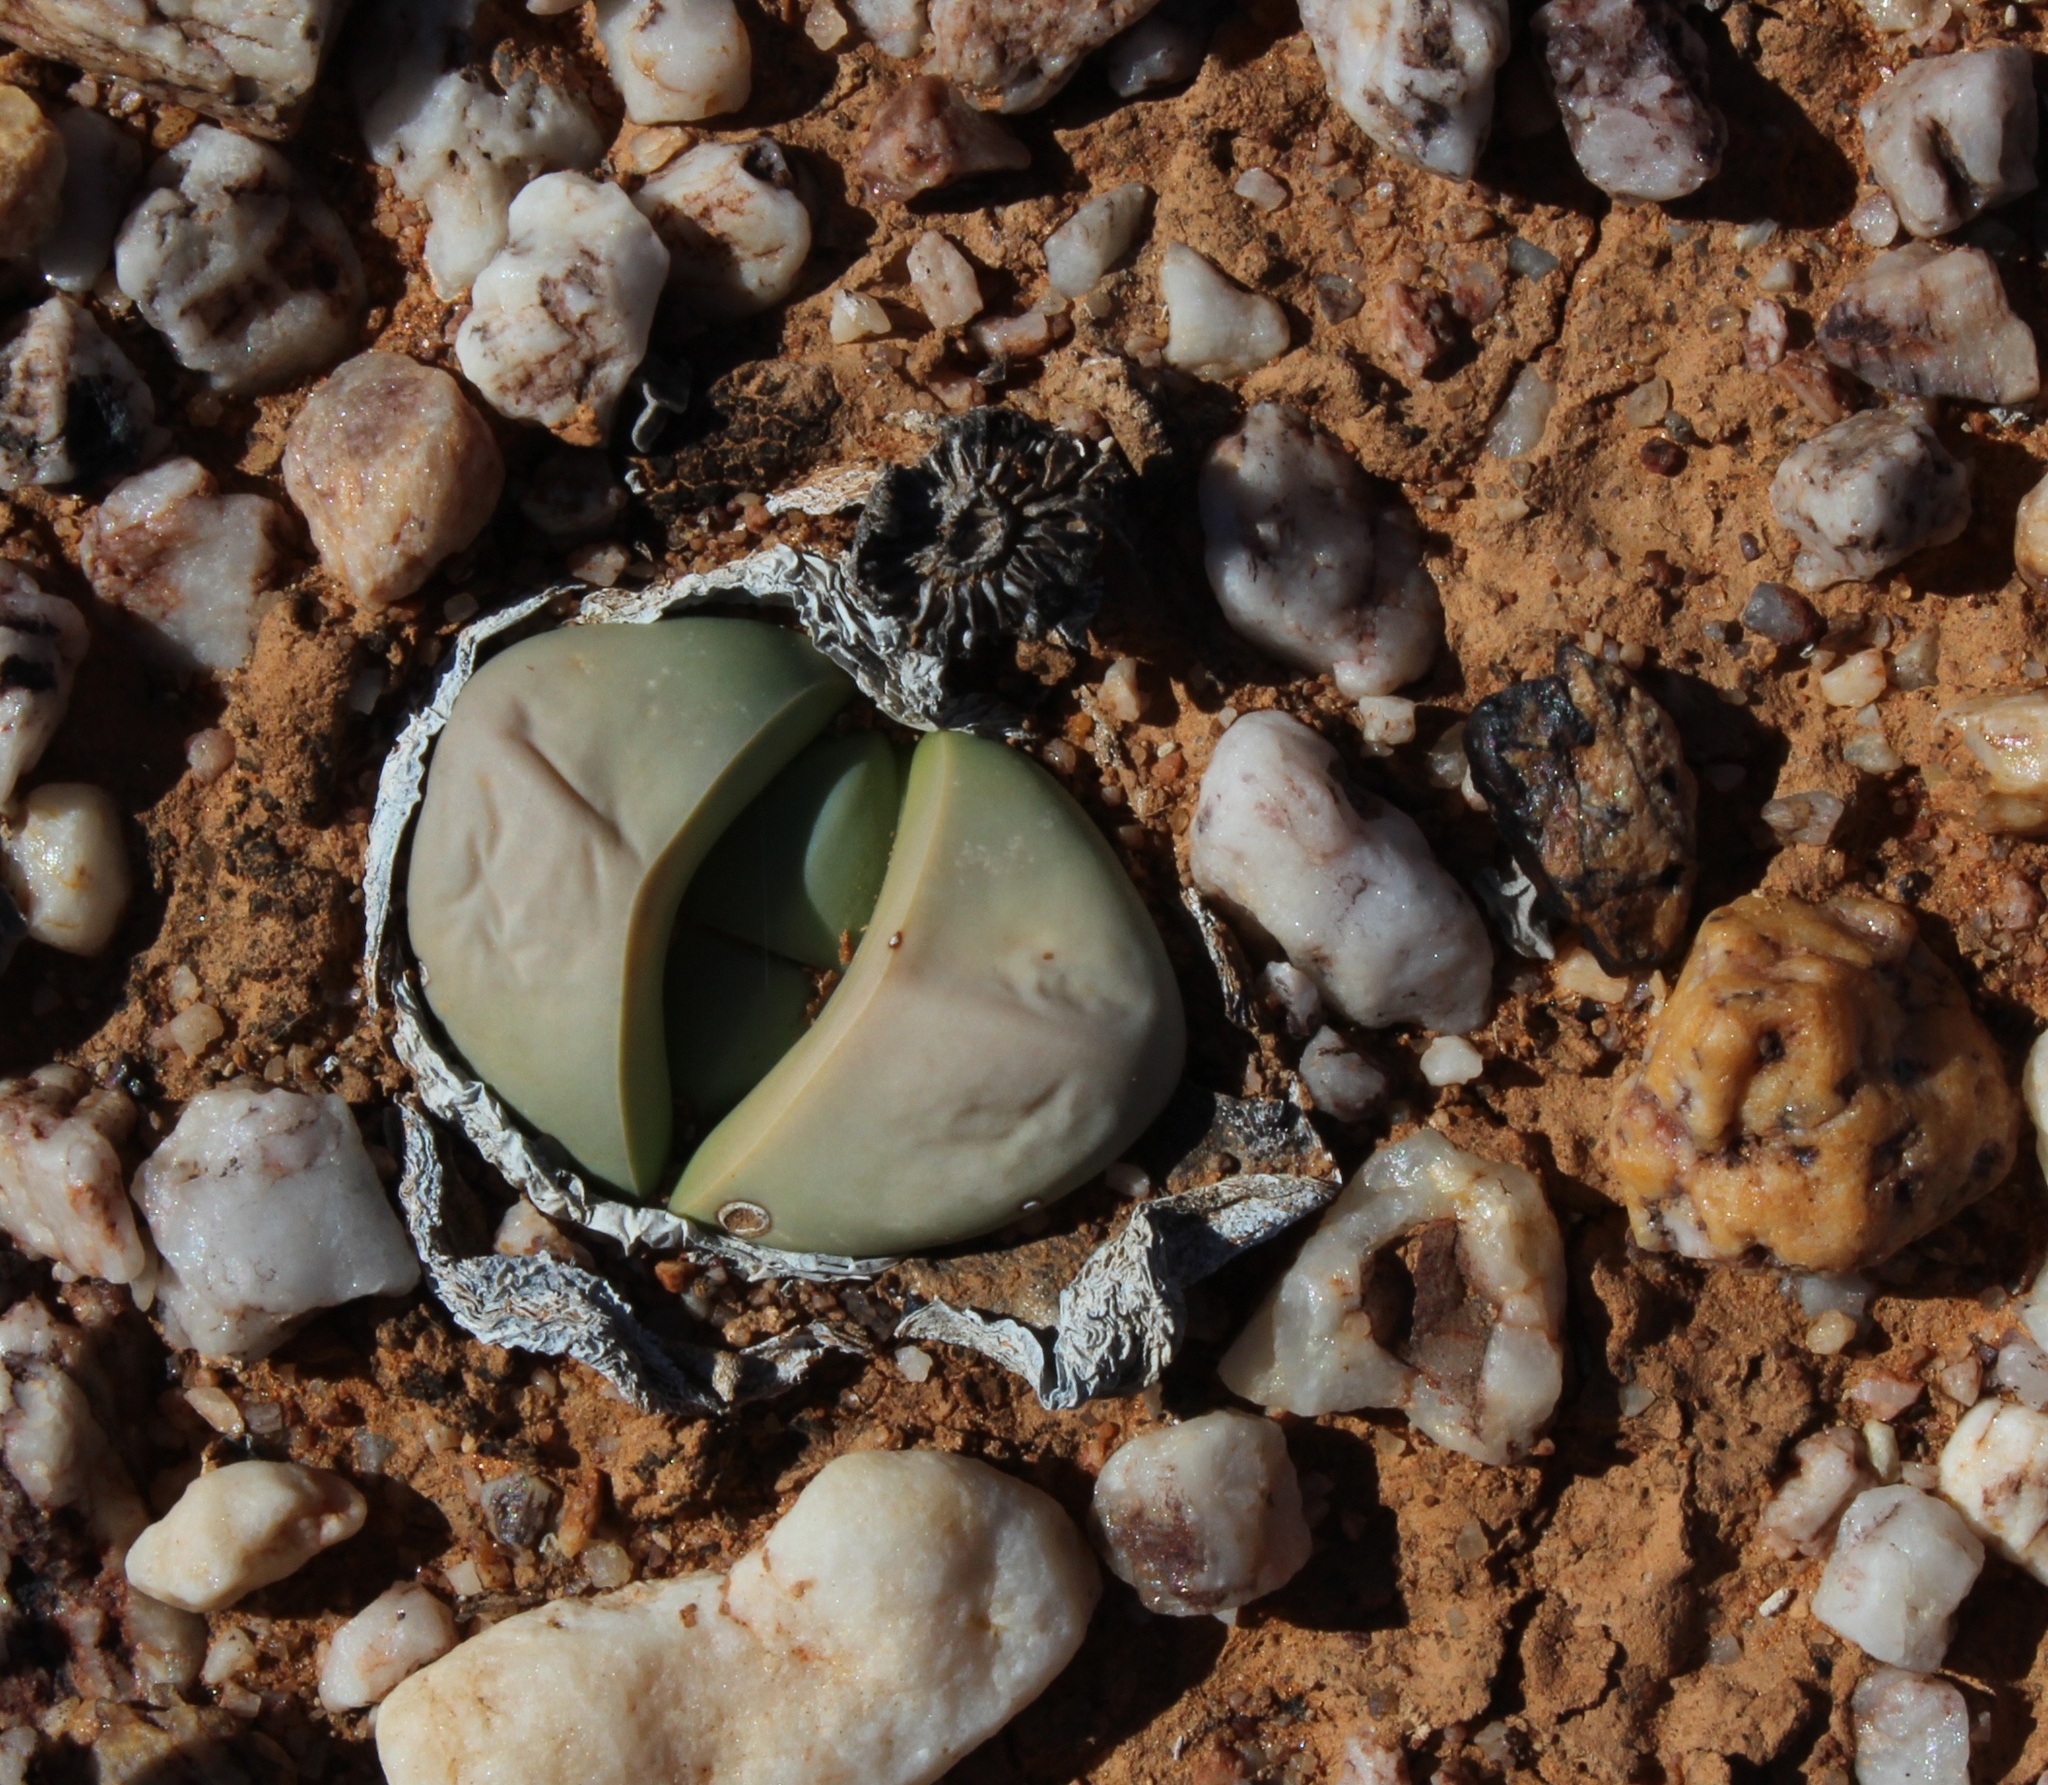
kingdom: Plantae
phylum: Tracheophyta
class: Magnoliopsida
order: Caryophyllales
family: Aizoaceae
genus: Argyroderma
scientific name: Argyroderma delaetii
